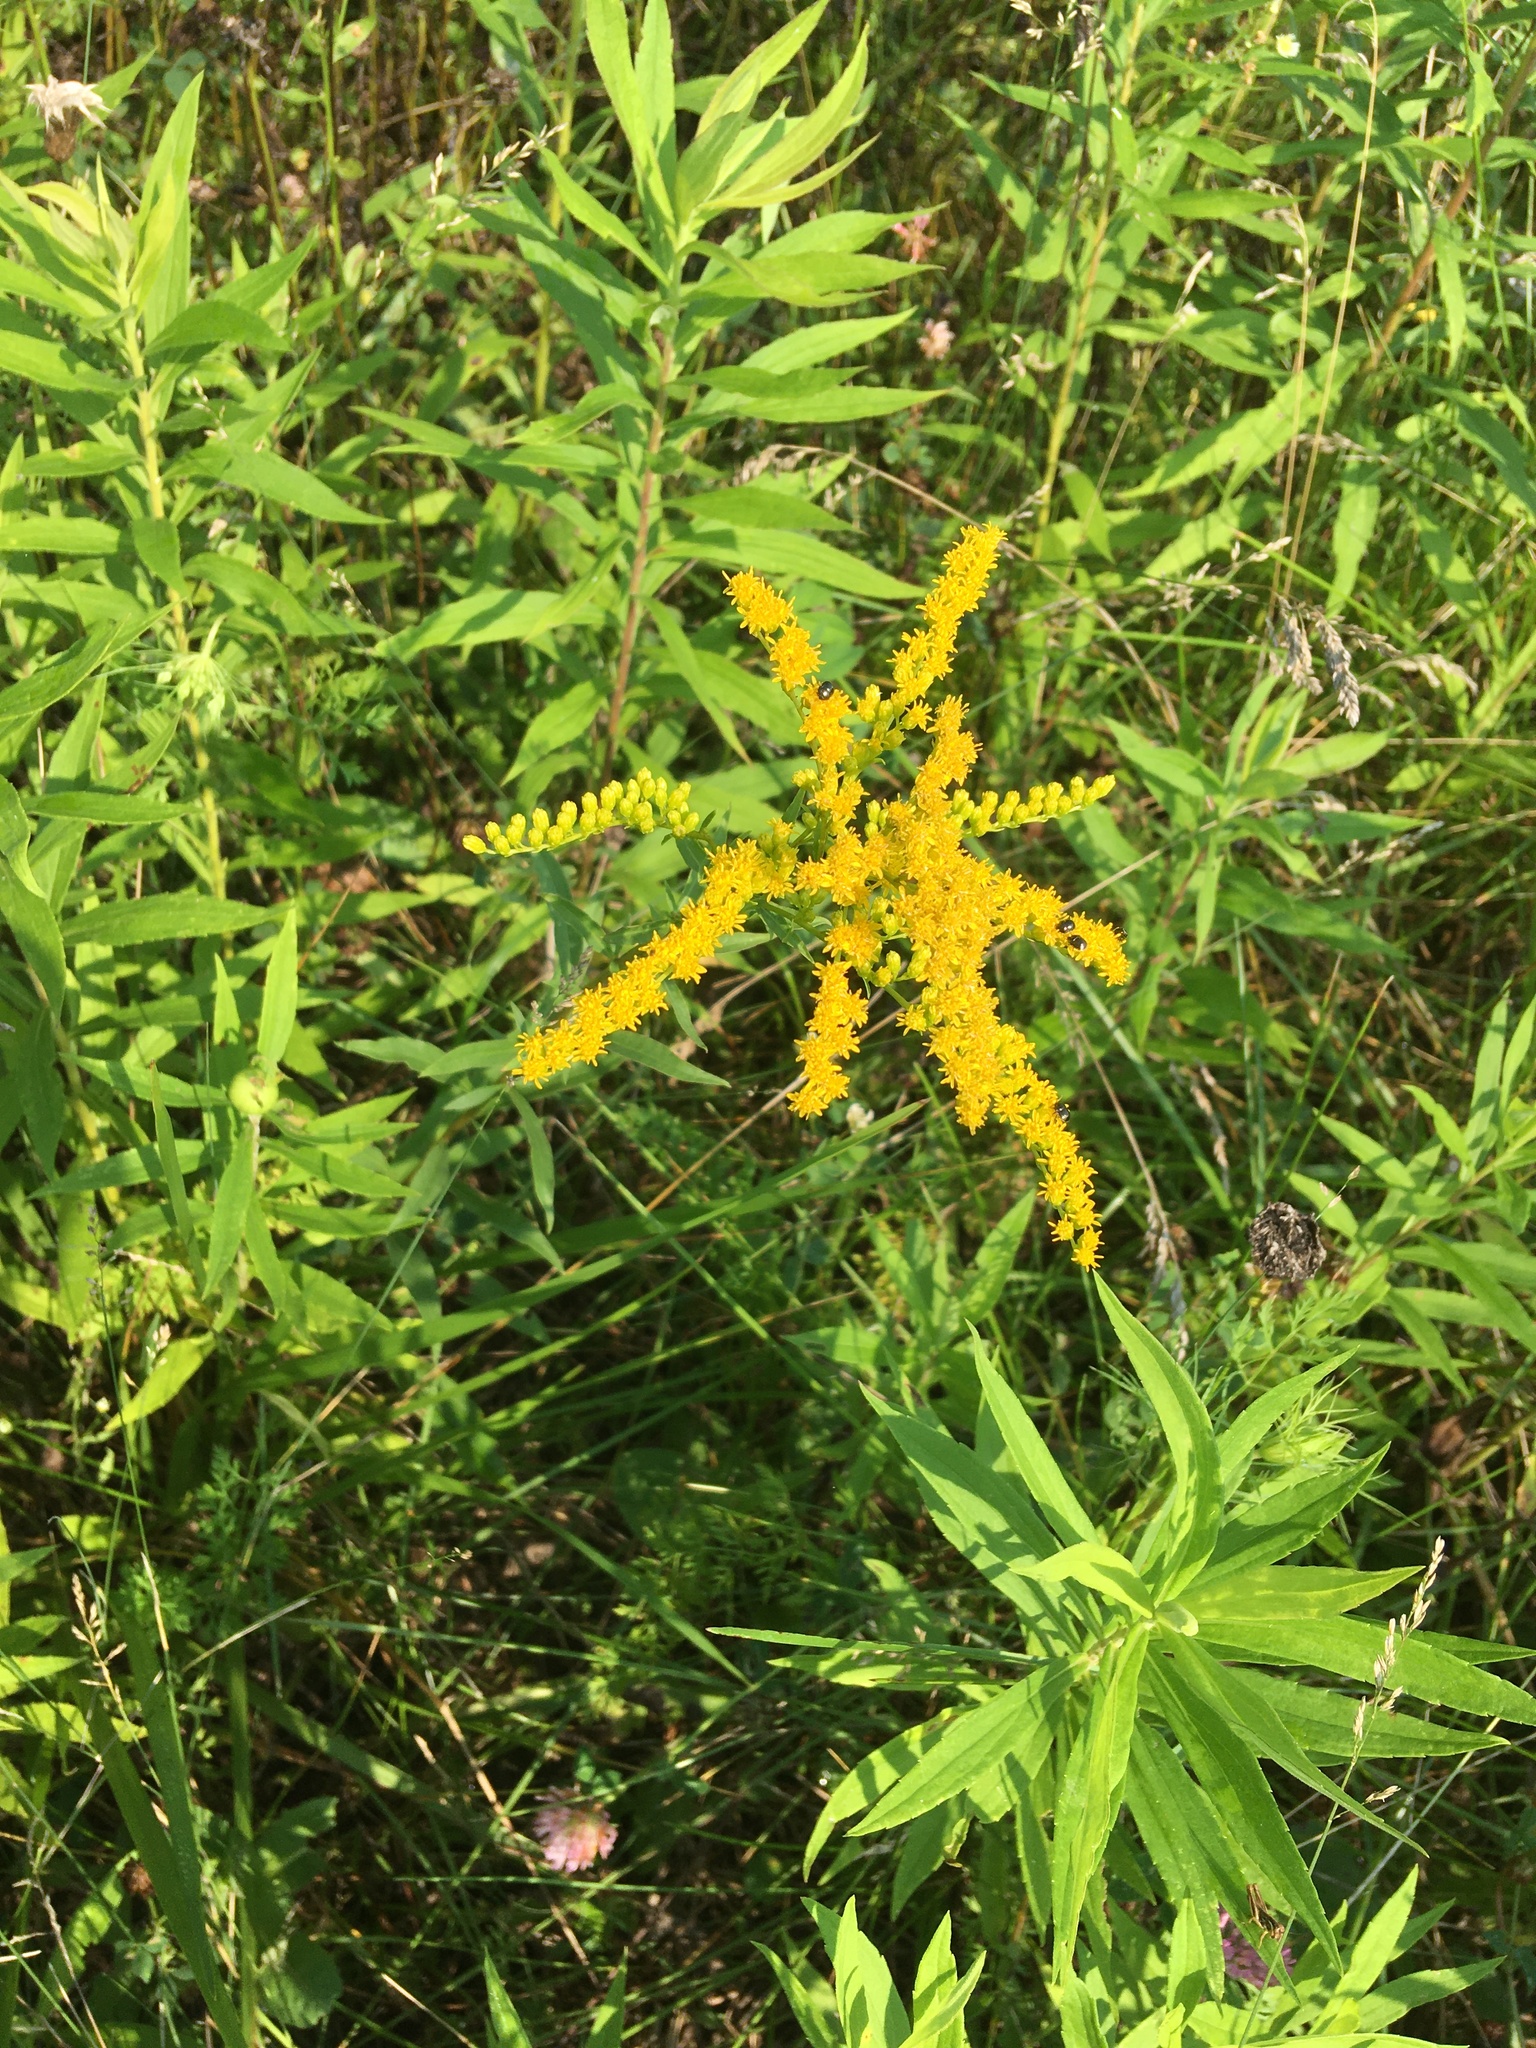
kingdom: Plantae
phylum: Tracheophyta
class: Magnoliopsida
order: Asterales
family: Asteraceae
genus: Solidago
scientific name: Solidago juncea
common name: Early goldenrod
